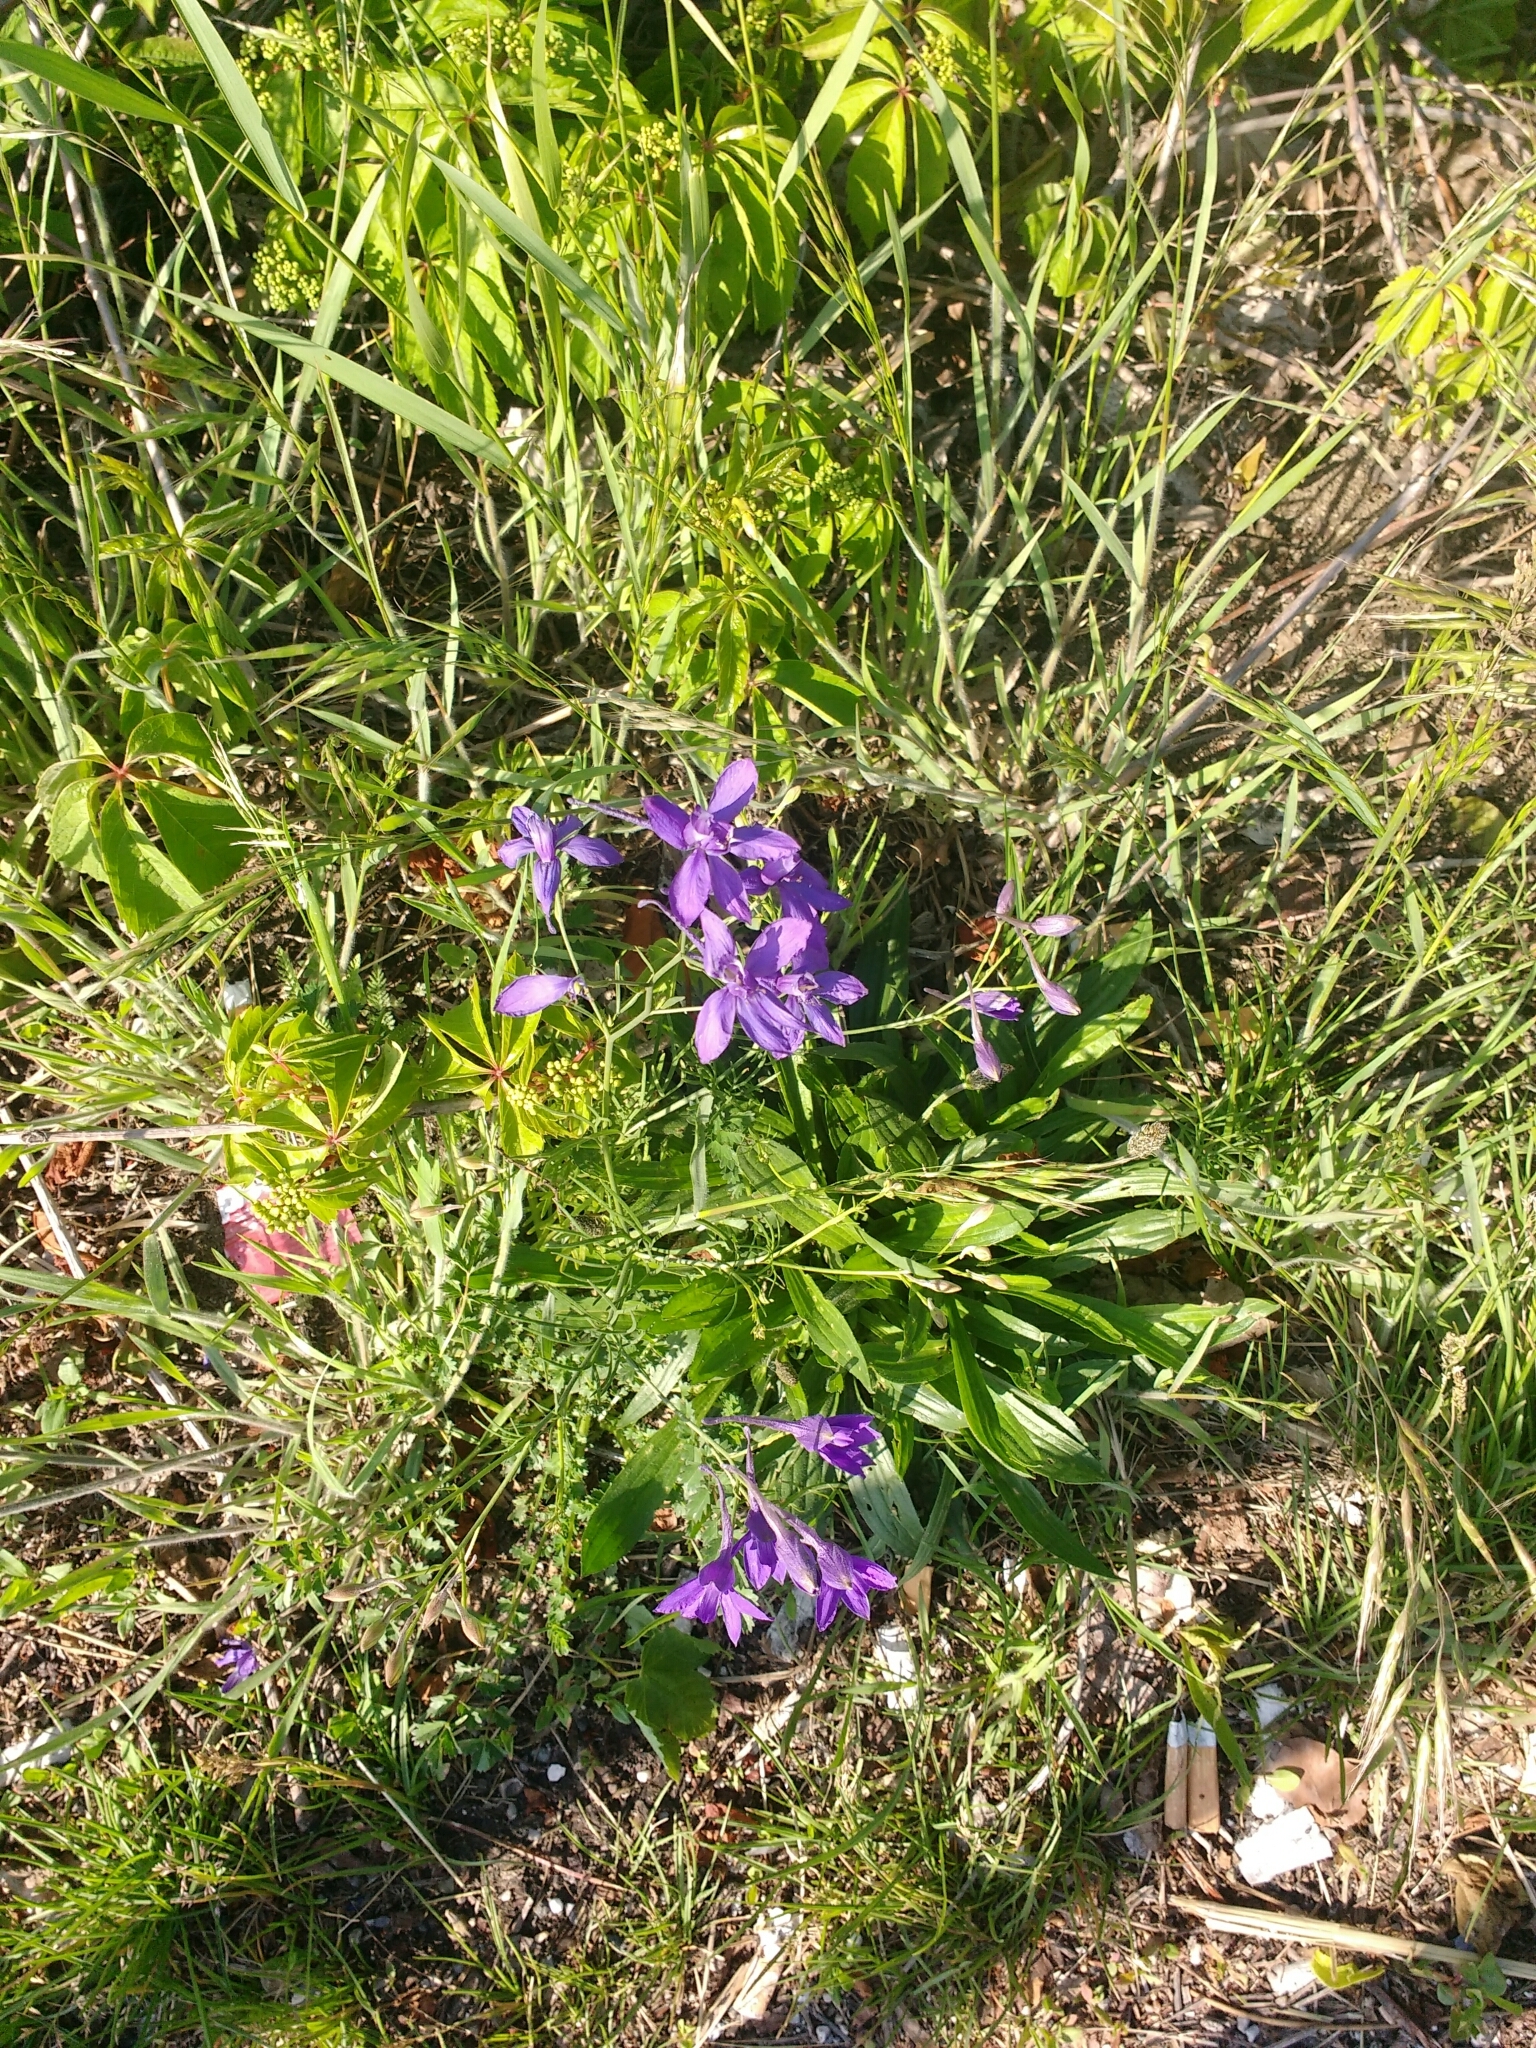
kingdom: Plantae
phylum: Tracheophyta
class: Magnoliopsida
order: Ranunculales
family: Ranunculaceae
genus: Delphinium
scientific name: Delphinium consolida
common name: Branching larkspur
